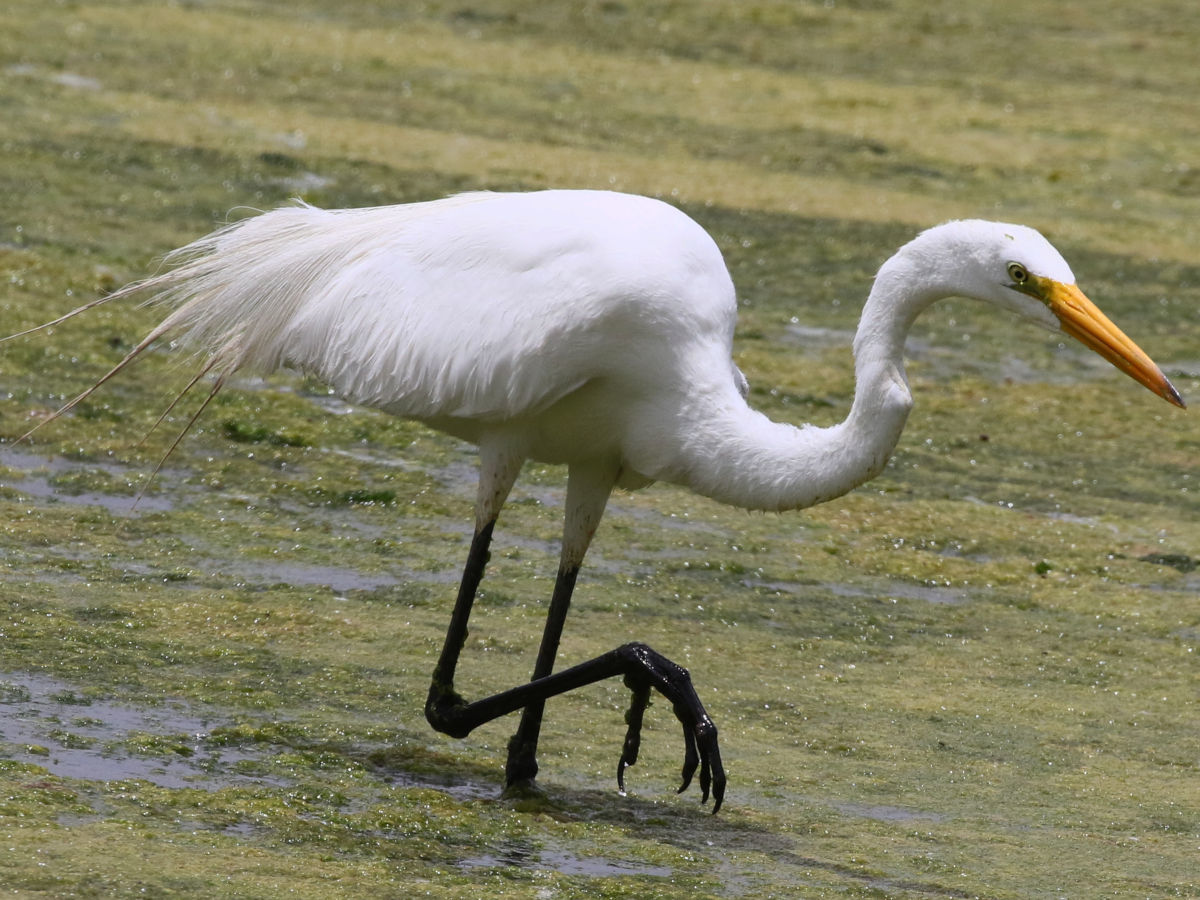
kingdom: Animalia
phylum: Chordata
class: Aves
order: Pelecaniformes
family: Ardeidae
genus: Ardea
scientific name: Ardea alba
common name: Great egret
